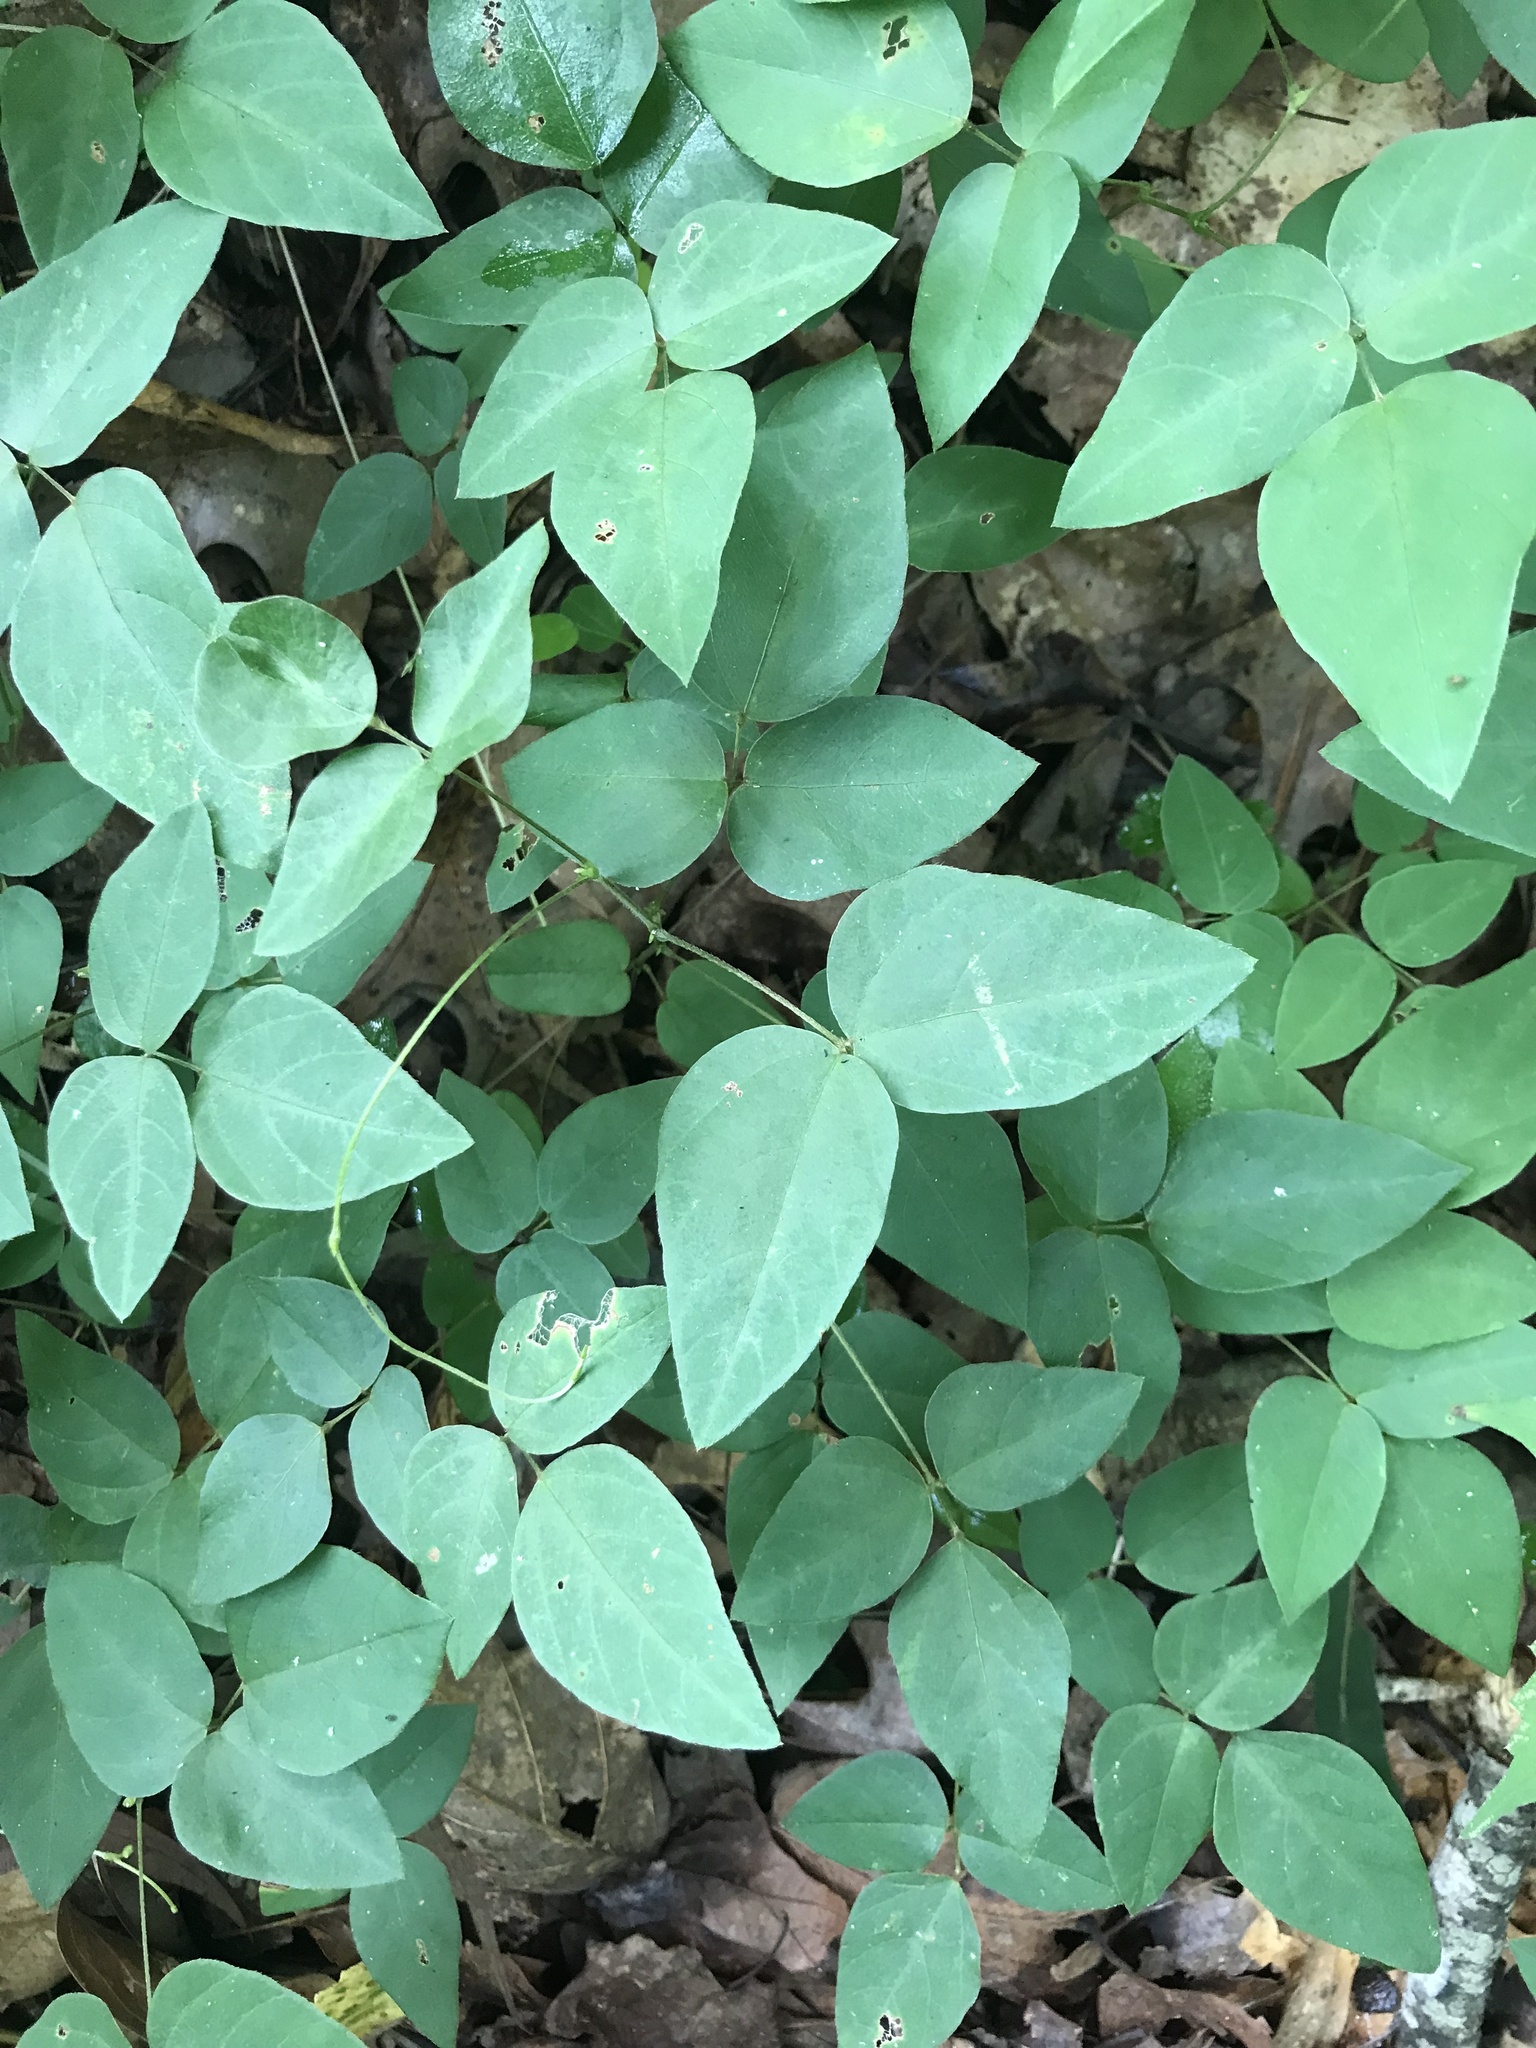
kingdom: Plantae
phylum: Tracheophyta
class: Magnoliopsida
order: Fabales
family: Fabaceae
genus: Amphicarpaea
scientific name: Amphicarpaea bracteata
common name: American hog peanut
